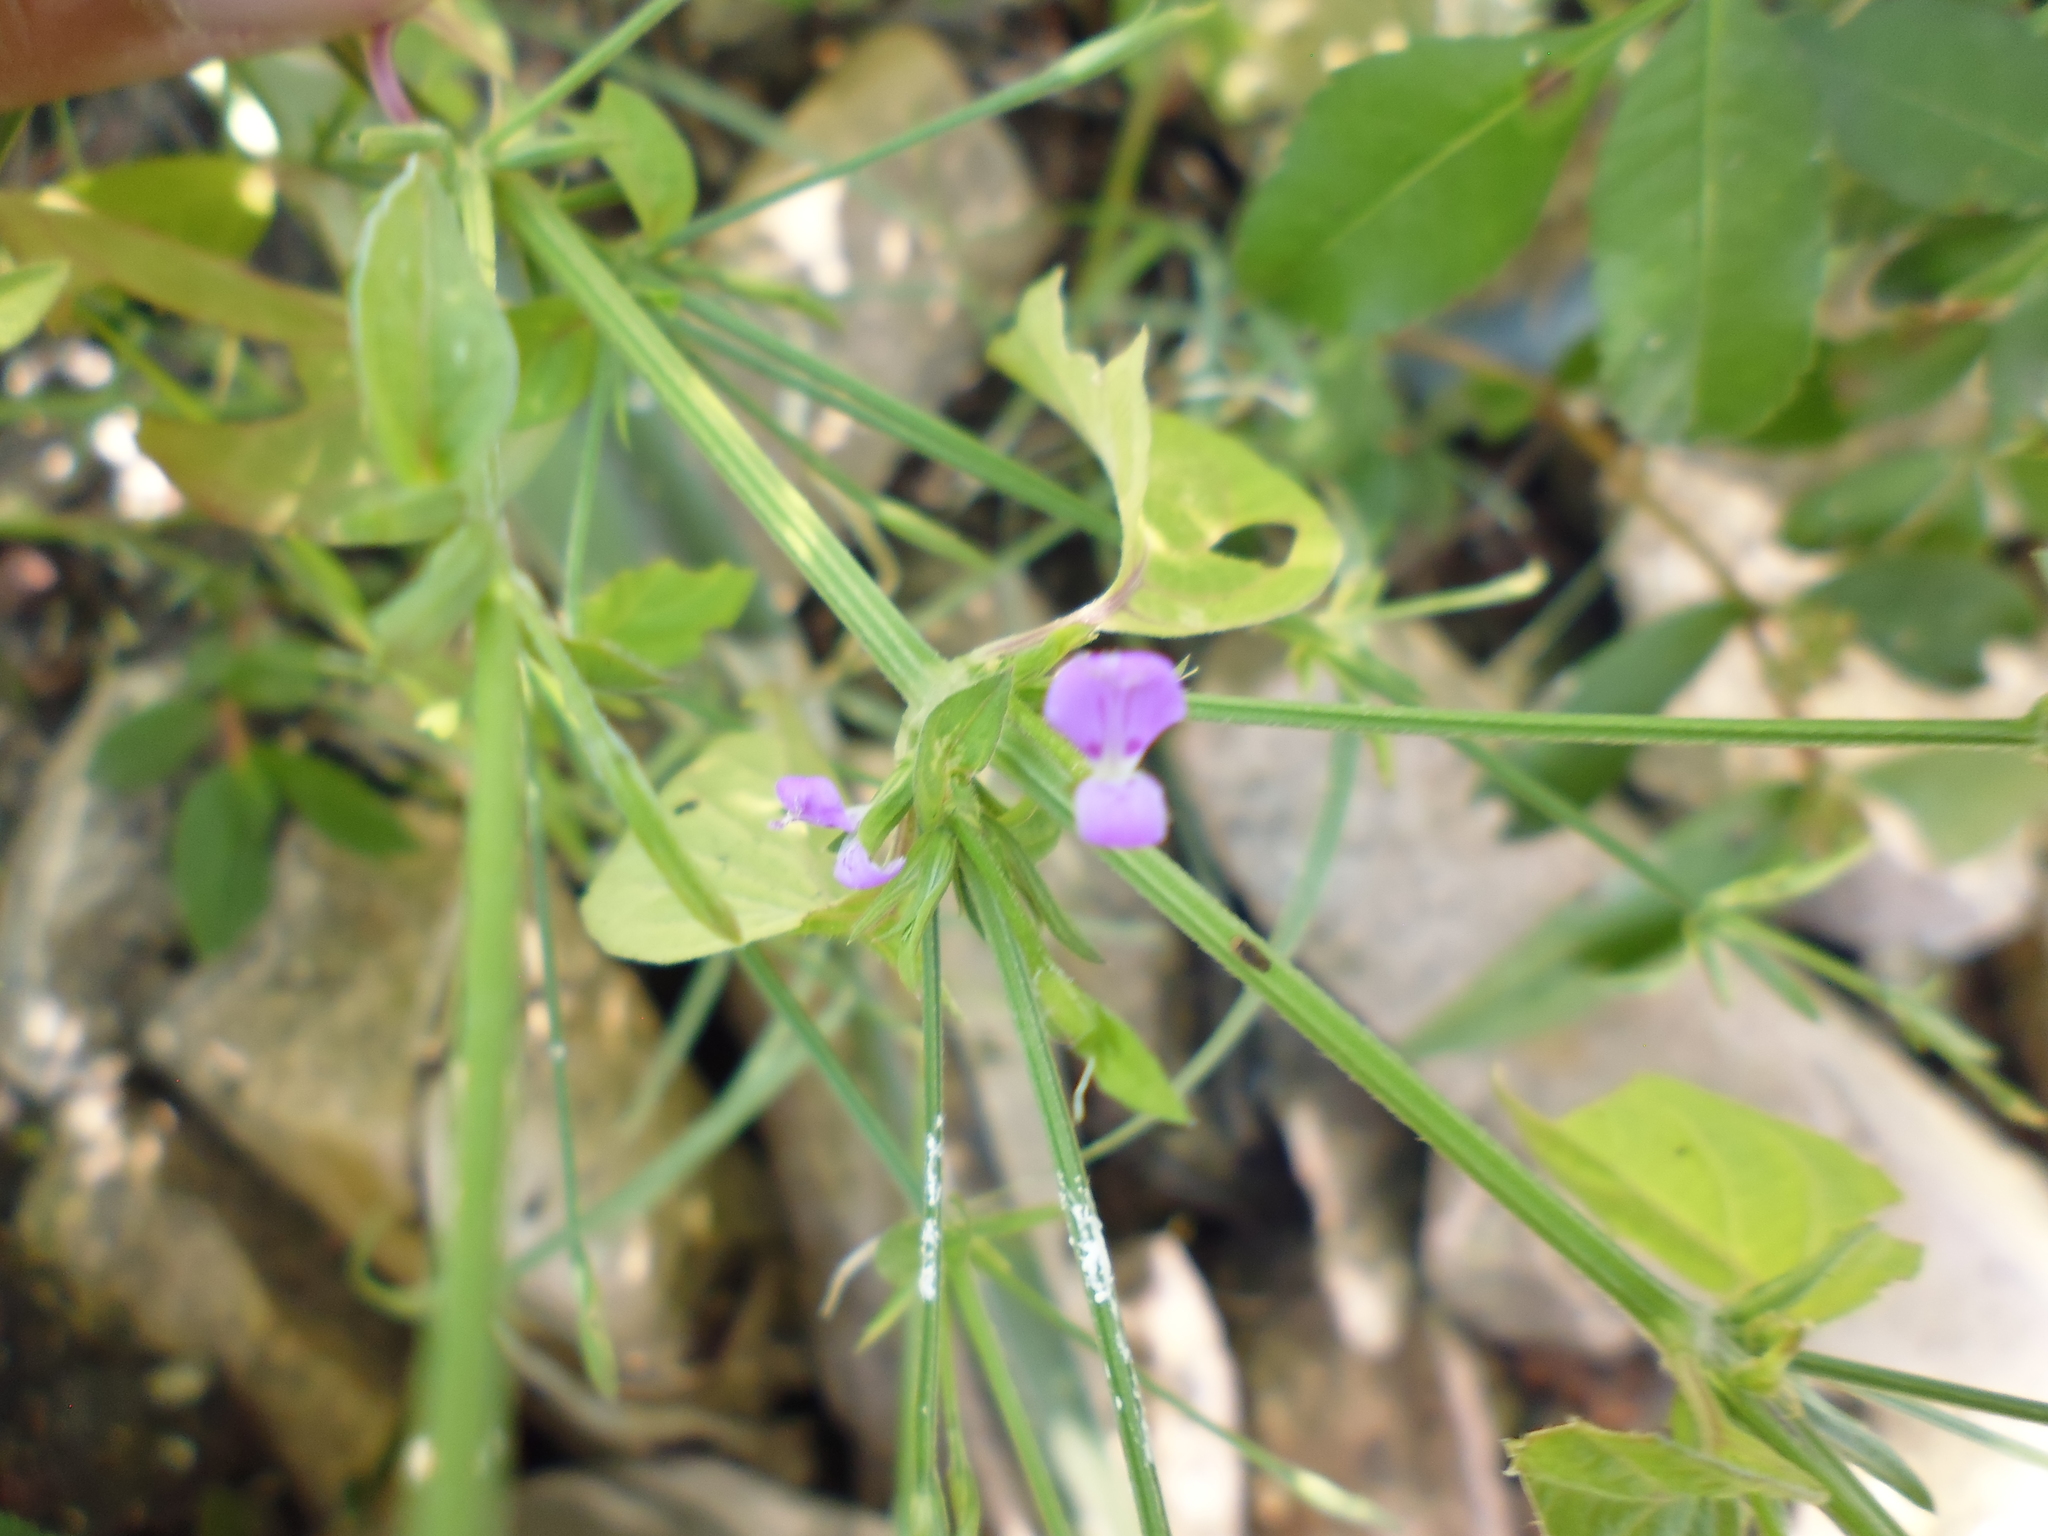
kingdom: Plantae
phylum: Tracheophyta
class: Magnoliopsida
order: Lamiales
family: Acanthaceae
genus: Dicliptera
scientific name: Dicliptera peduncularis
